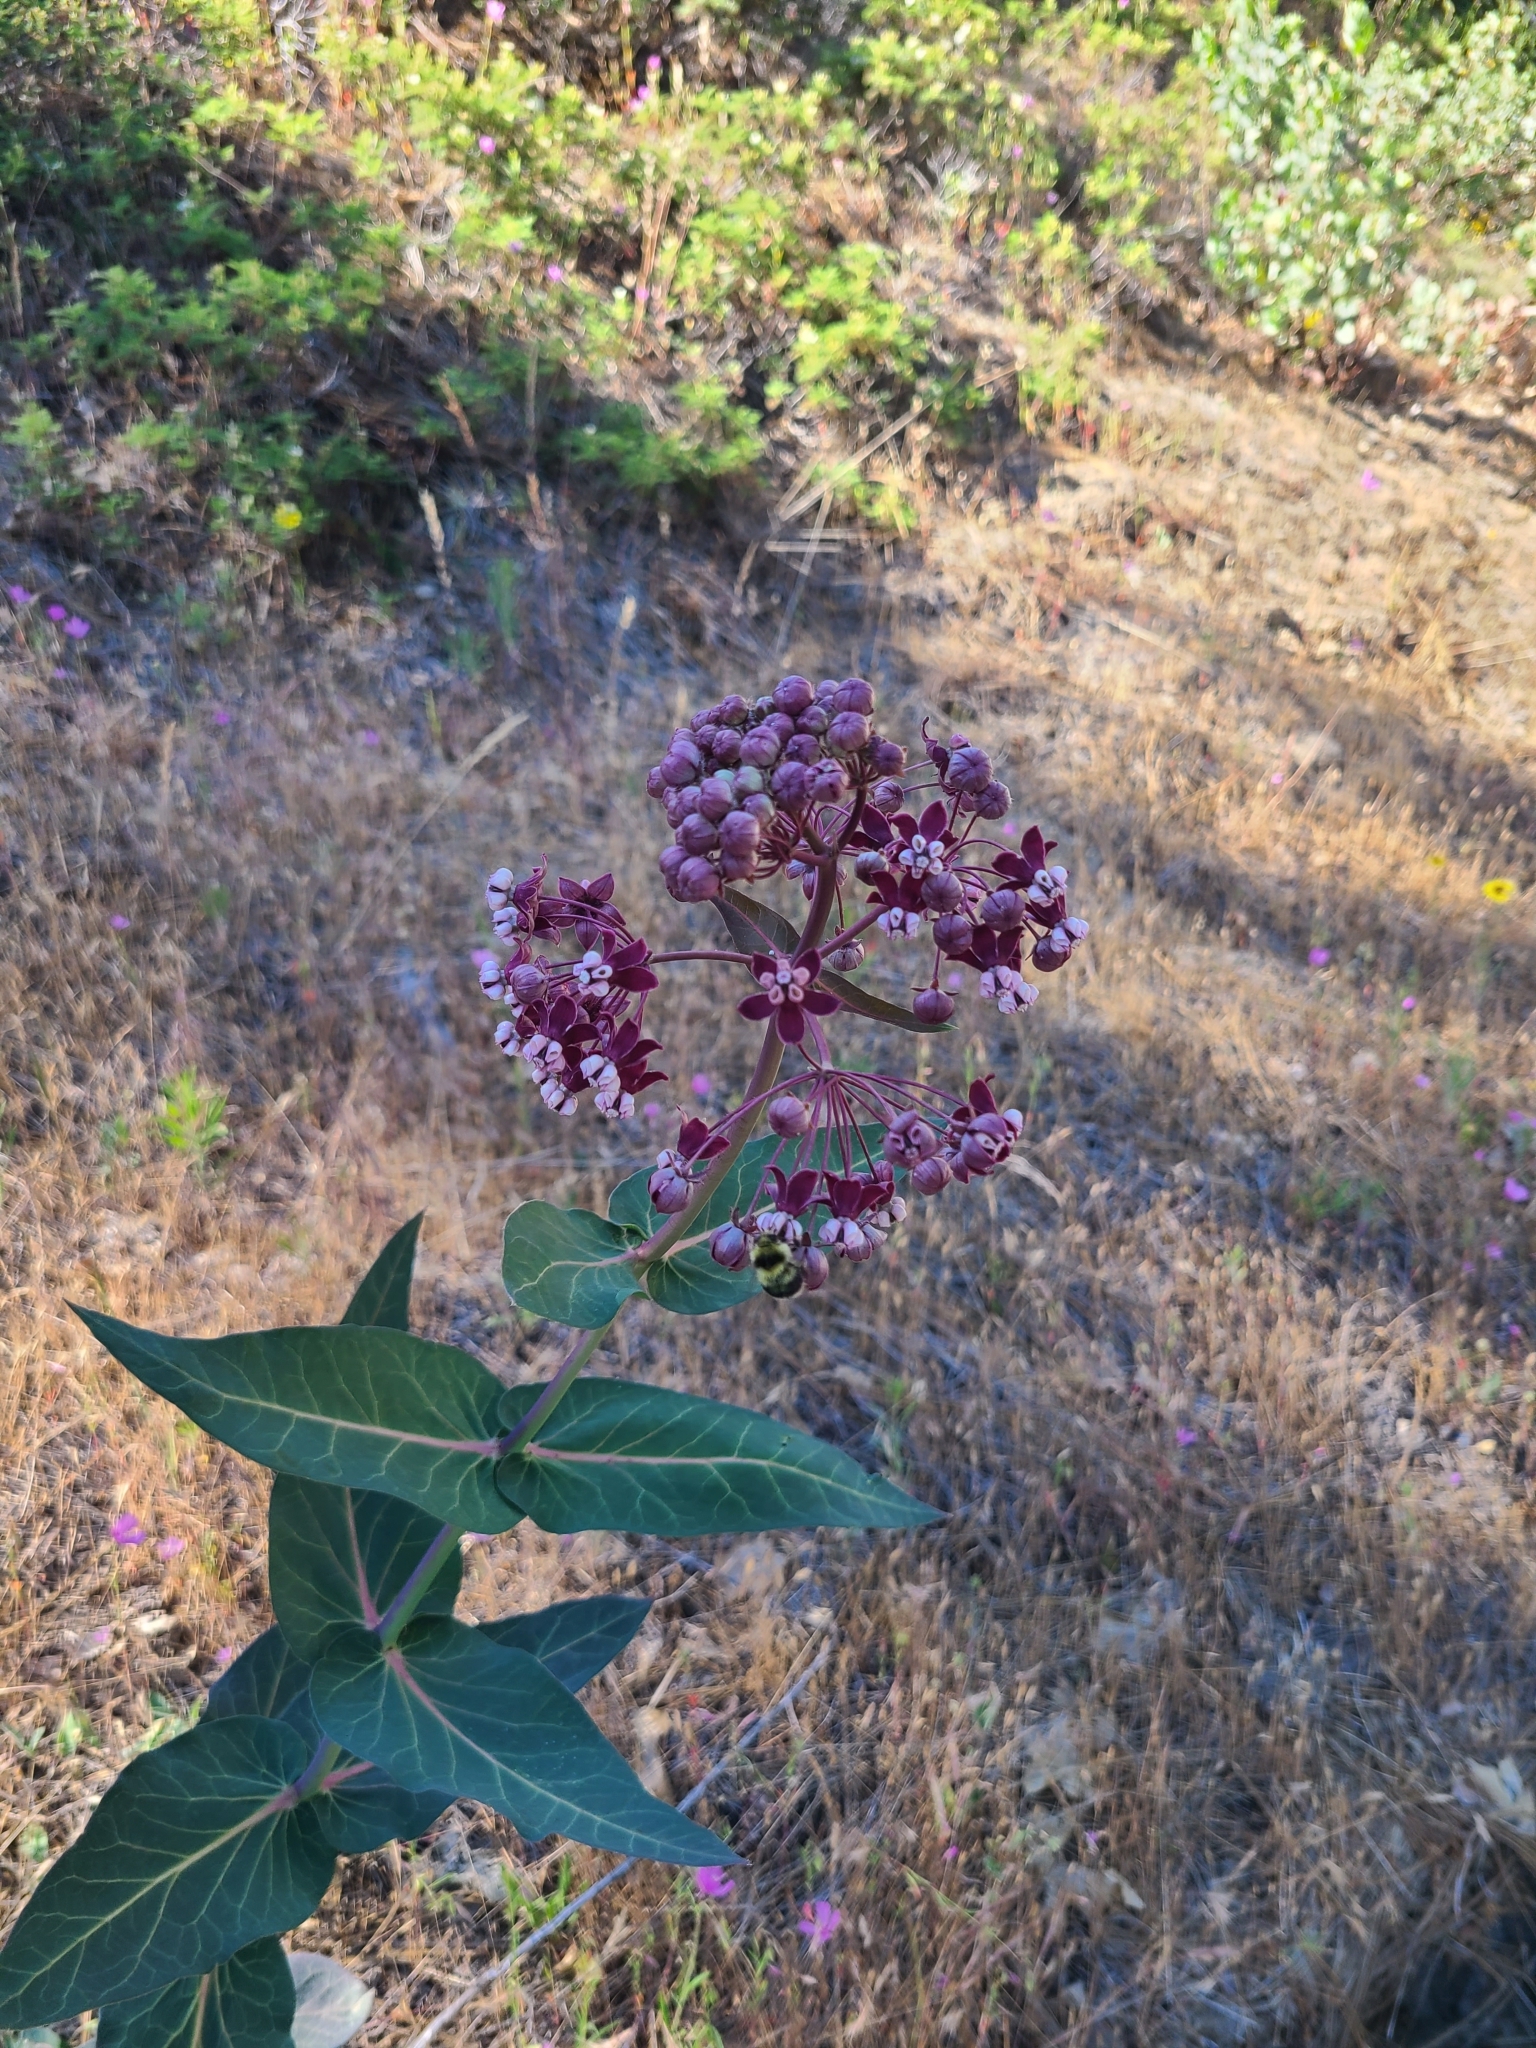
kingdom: Plantae
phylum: Tracheophyta
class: Magnoliopsida
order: Gentianales
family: Apocynaceae
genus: Asclepias
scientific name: Asclepias cordifolia
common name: Purple milkweed
